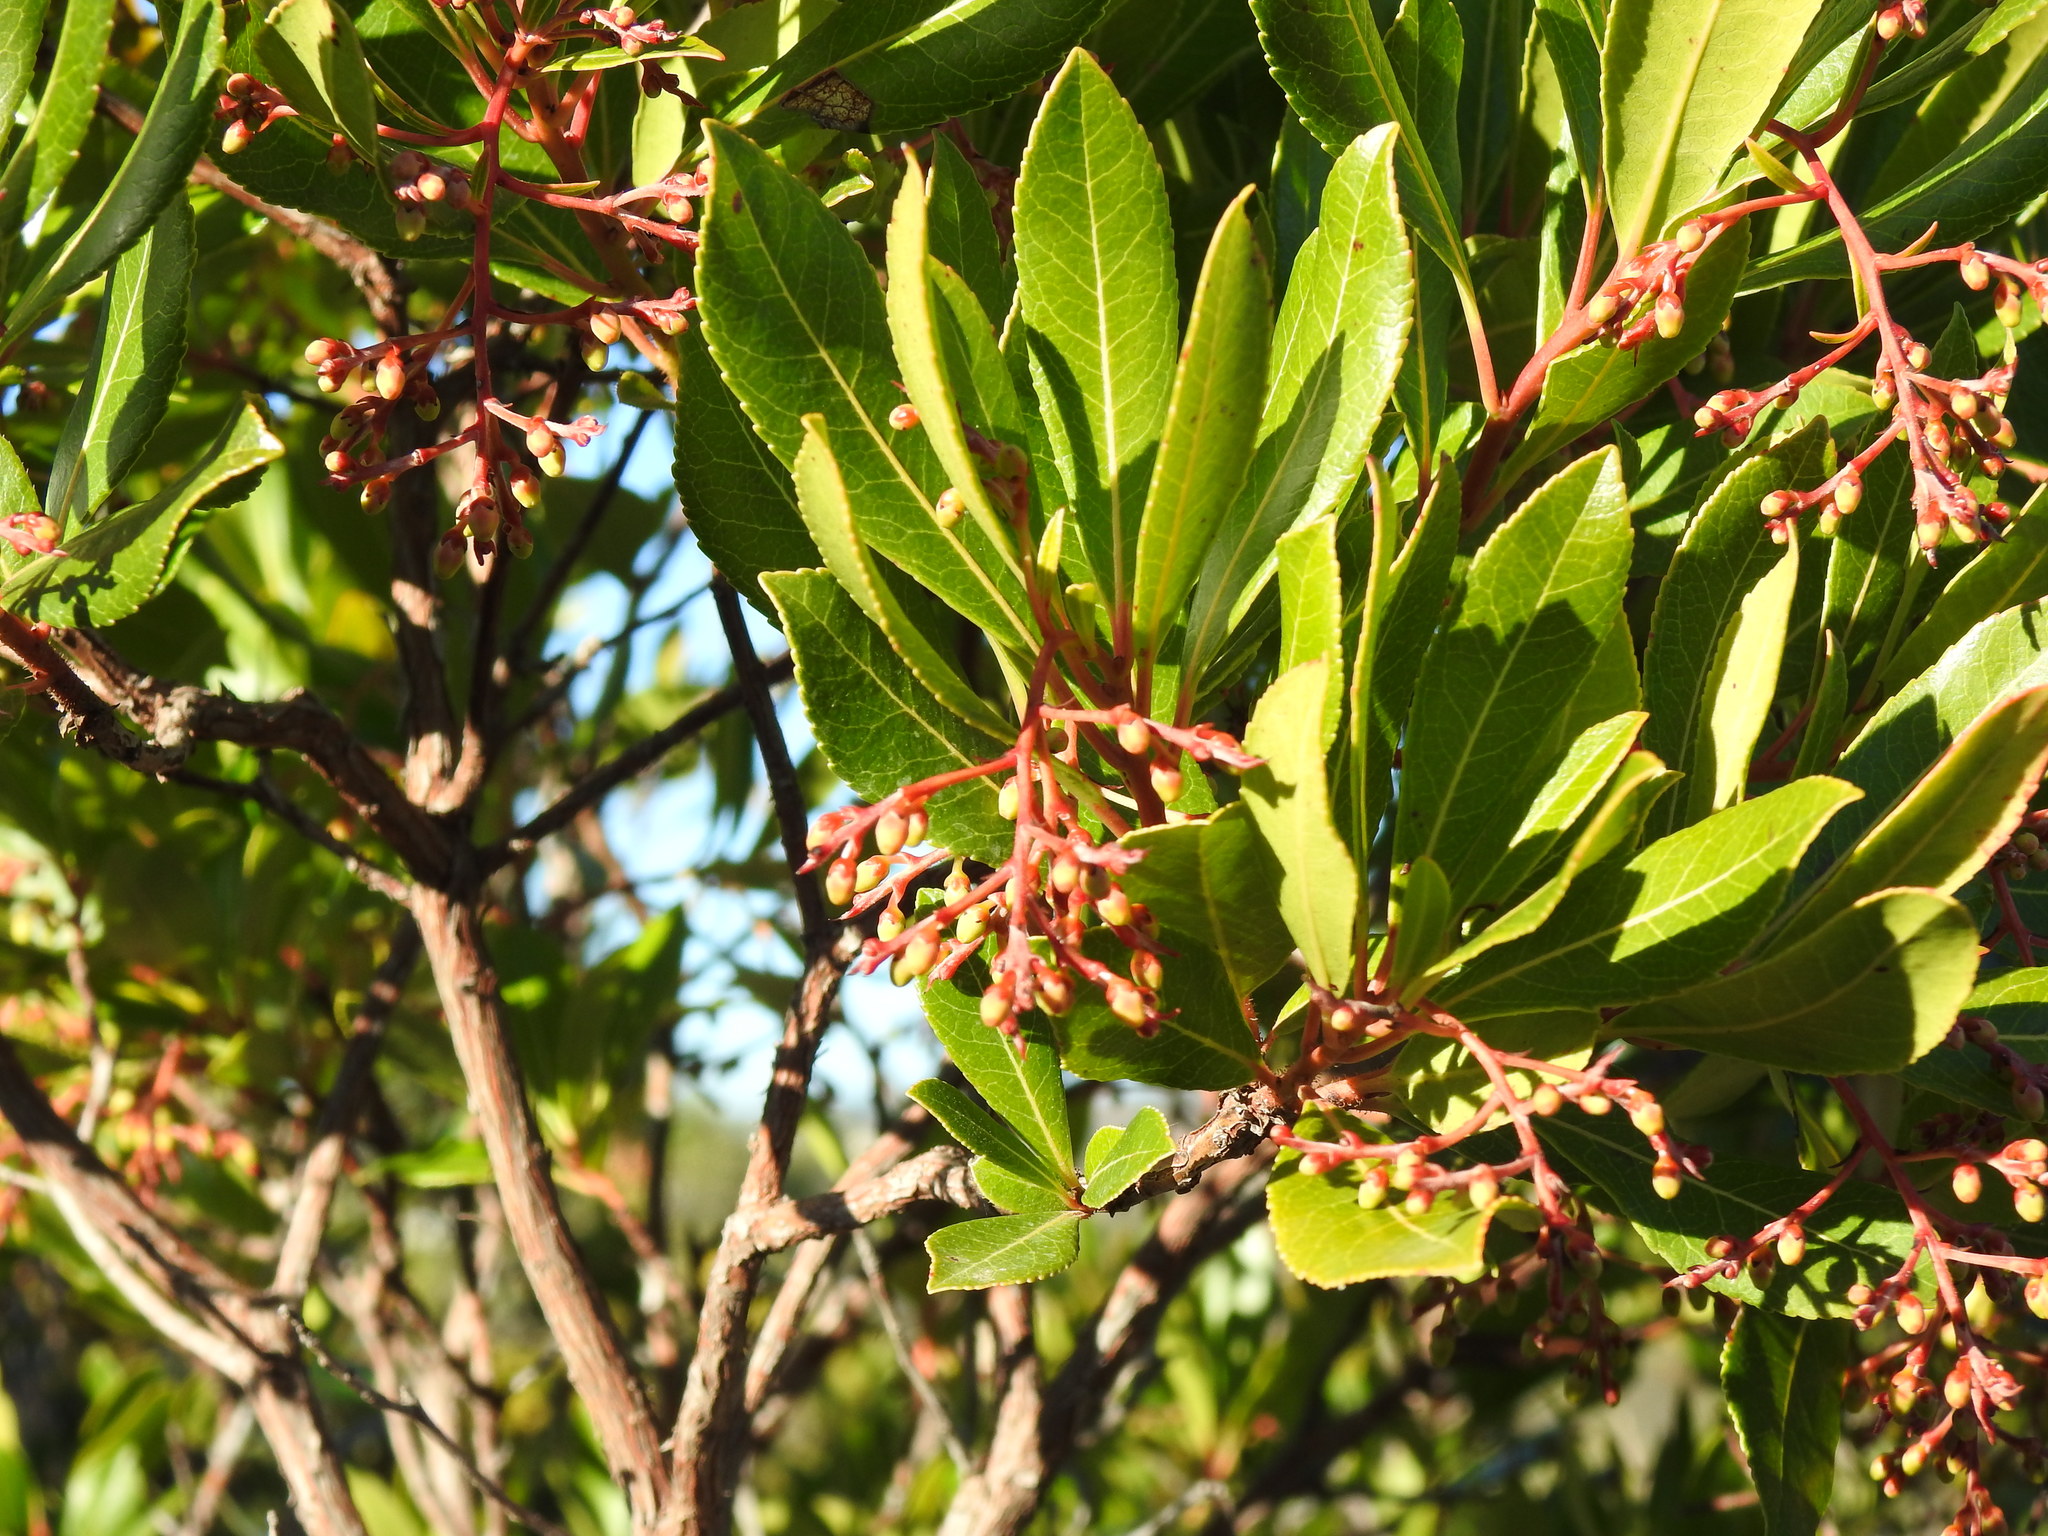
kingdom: Plantae
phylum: Tracheophyta
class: Magnoliopsida
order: Ericales
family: Ericaceae
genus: Arbutus
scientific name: Arbutus unedo
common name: Strawberry-tree
